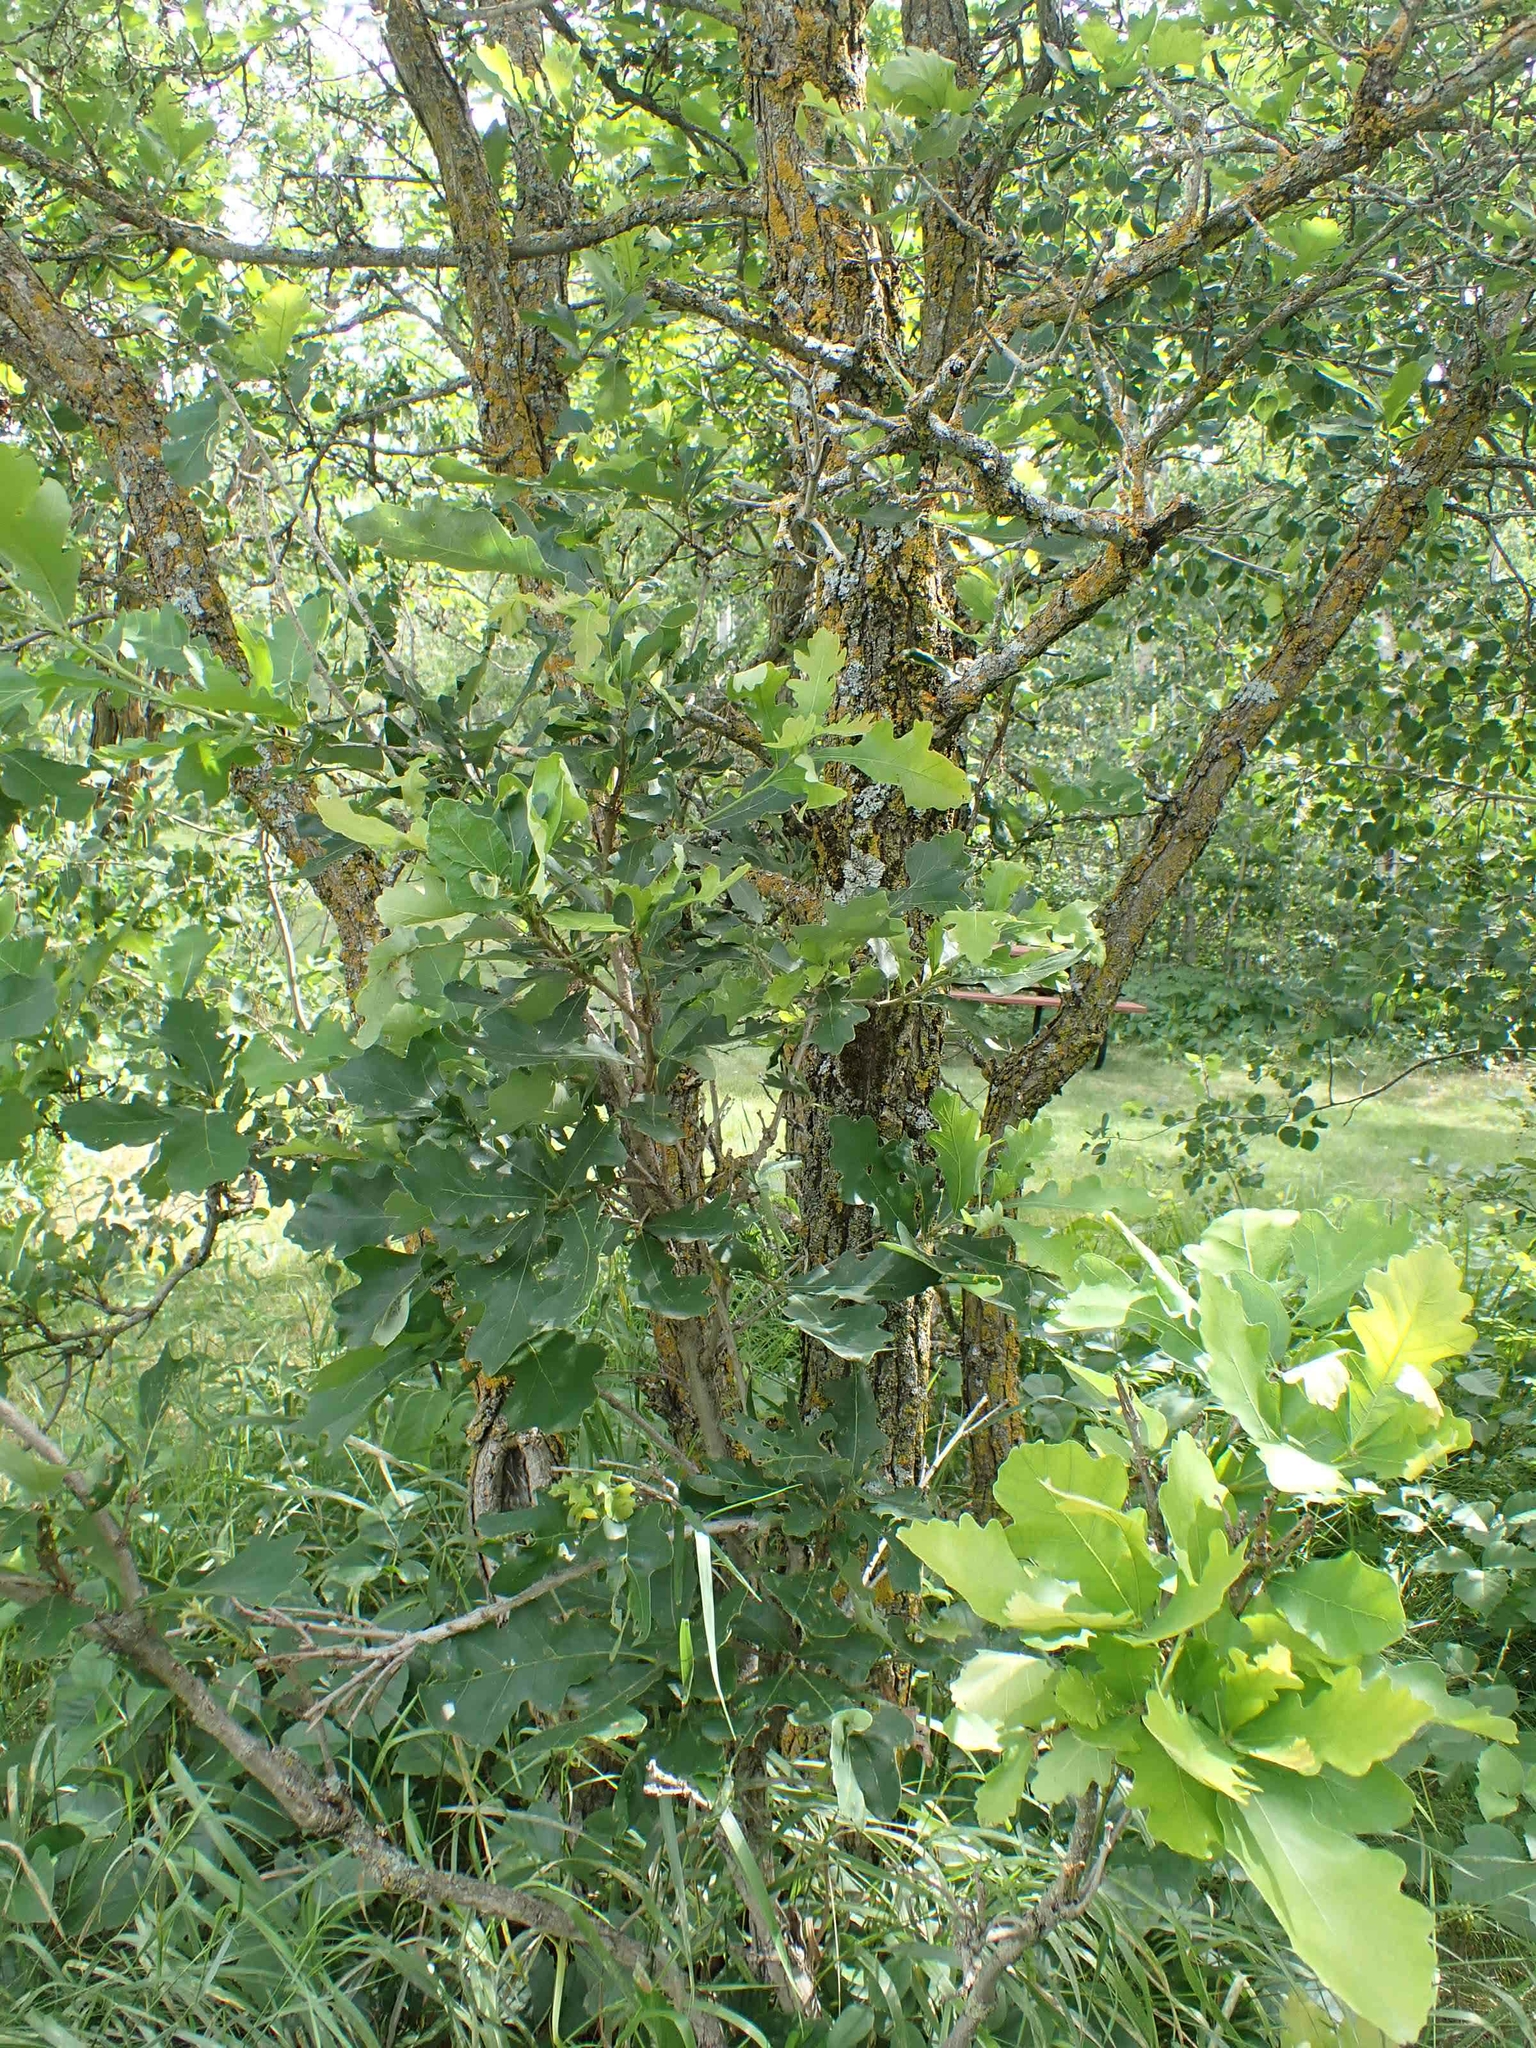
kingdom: Plantae
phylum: Tracheophyta
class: Magnoliopsida
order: Fagales
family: Fagaceae
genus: Quercus
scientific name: Quercus macrocarpa
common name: Bur oak
